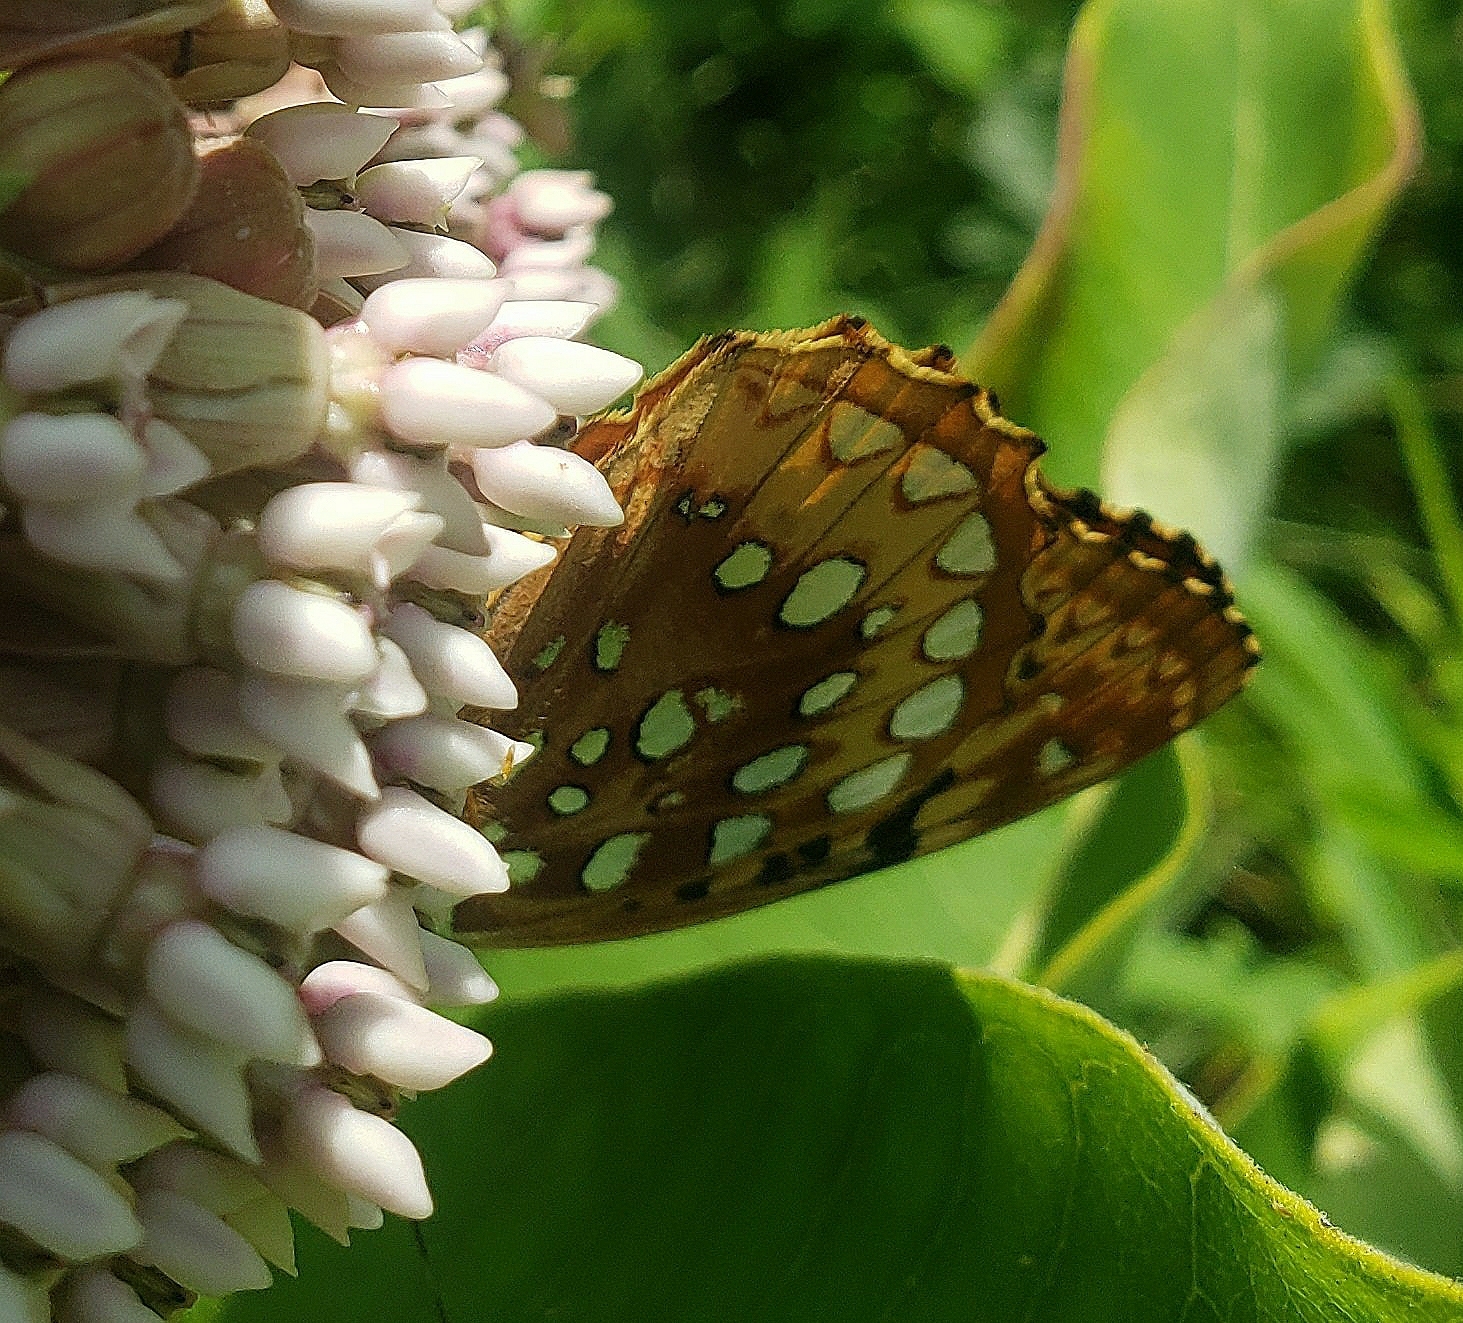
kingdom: Animalia
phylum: Arthropoda
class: Insecta
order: Lepidoptera
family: Nymphalidae
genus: Speyeria
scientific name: Speyeria cybele
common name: Great spangled fritillary
